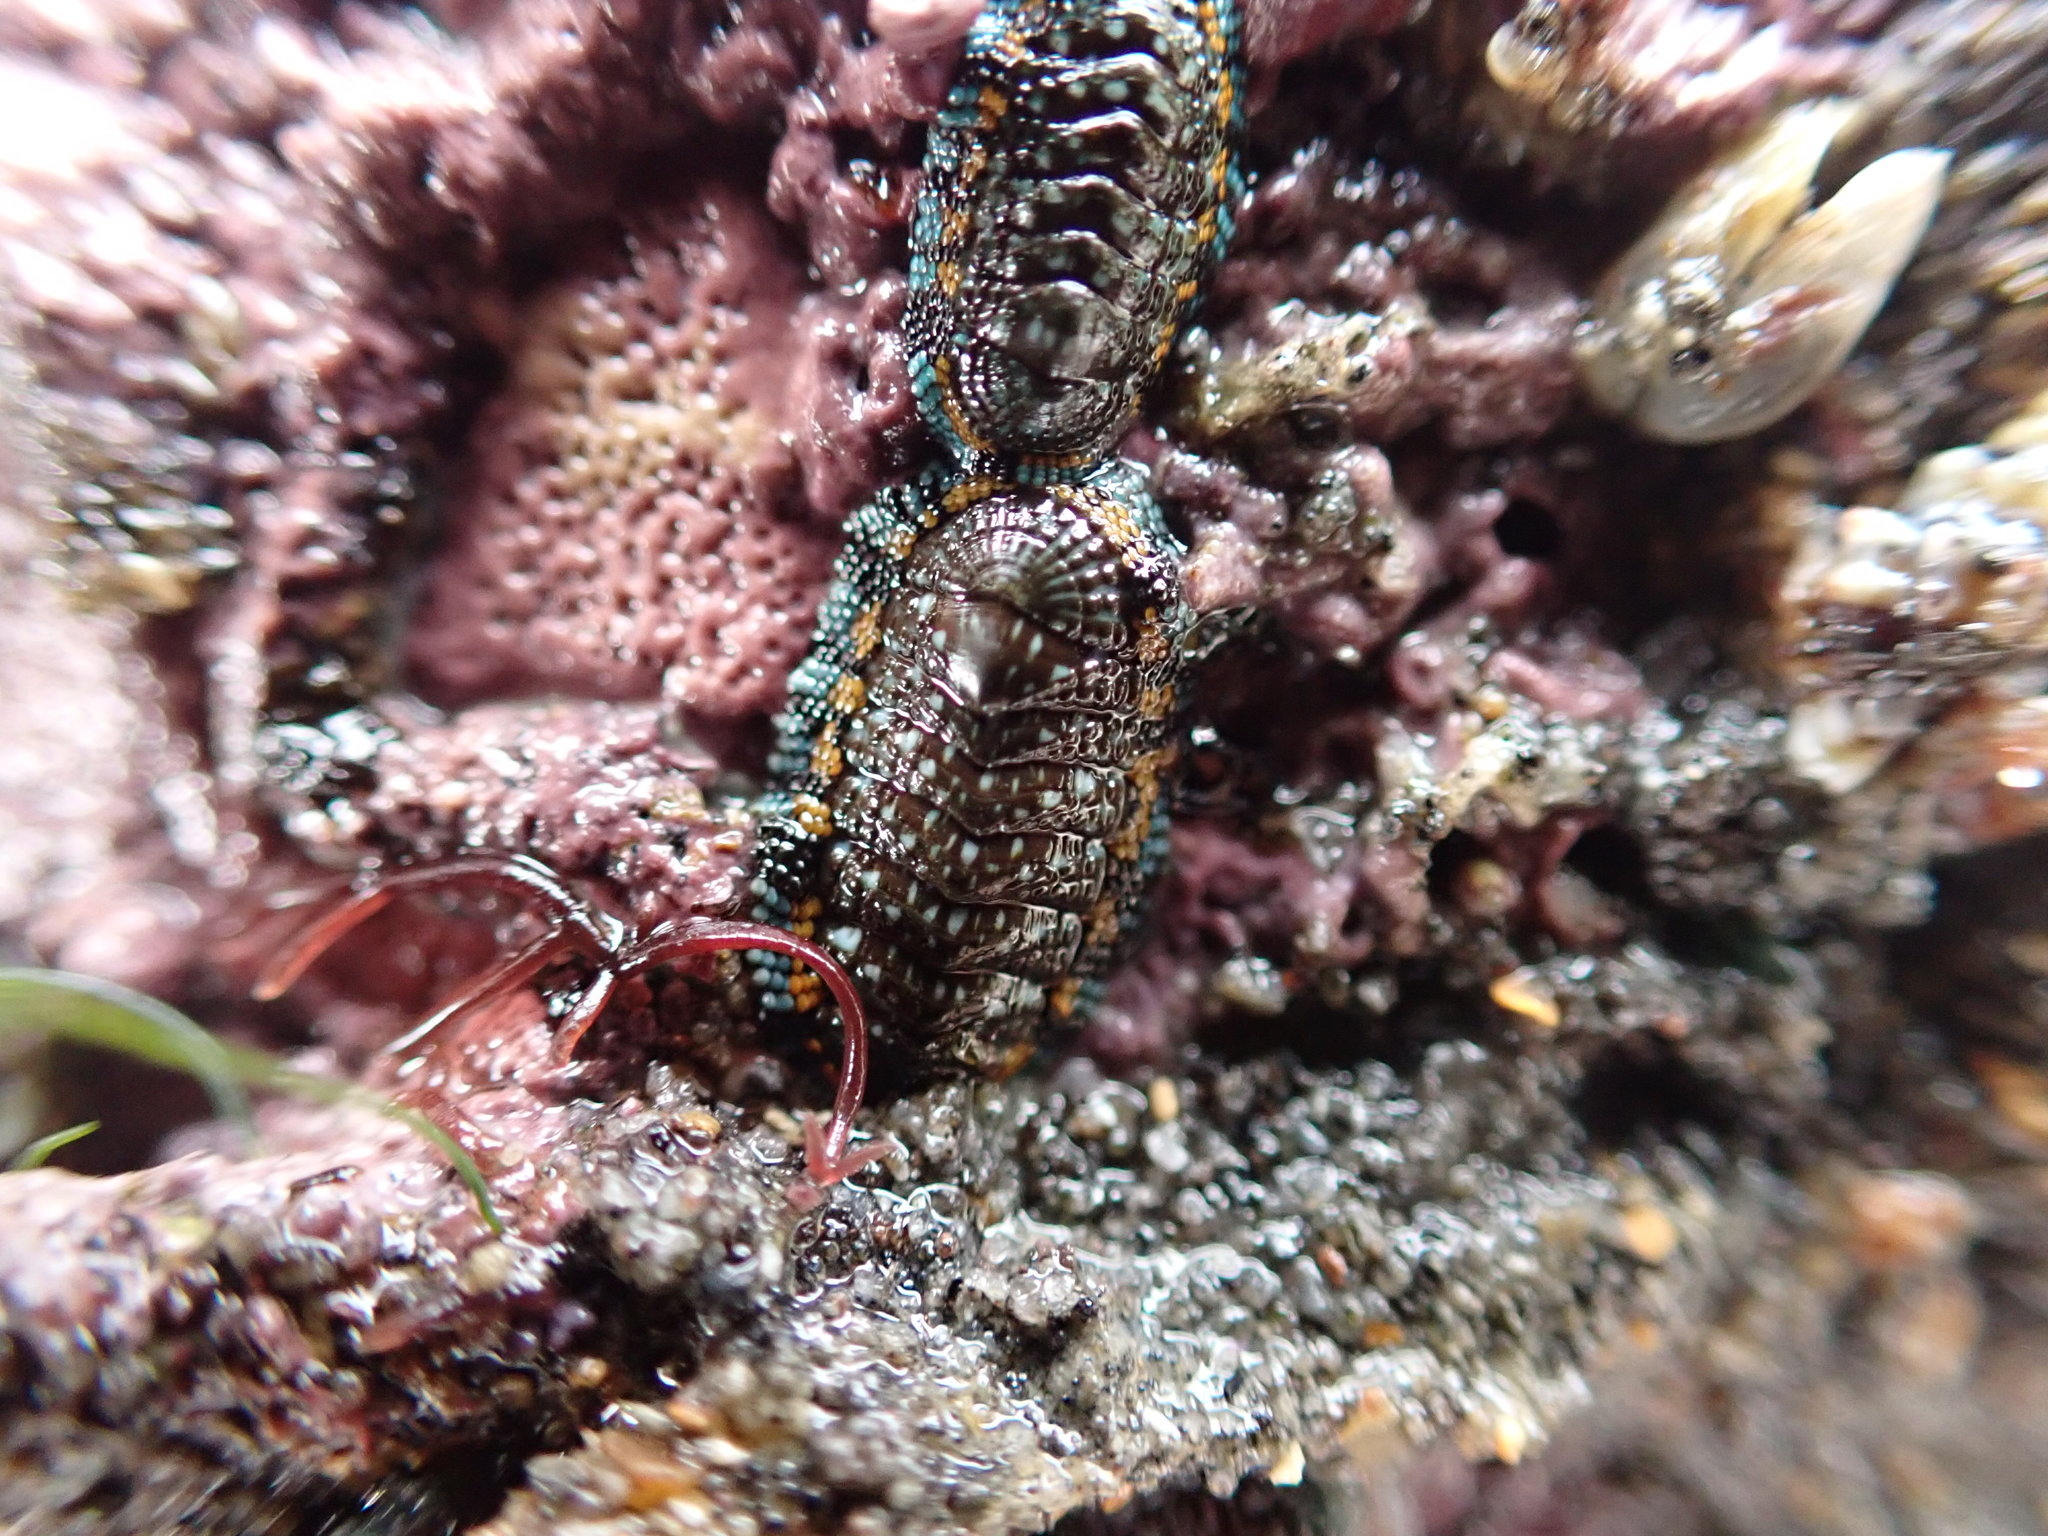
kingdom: Animalia
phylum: Mollusca
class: Polyplacophora
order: Chitonida
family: Chitonidae
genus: Sypharochiton
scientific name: Sypharochiton sinclairi
